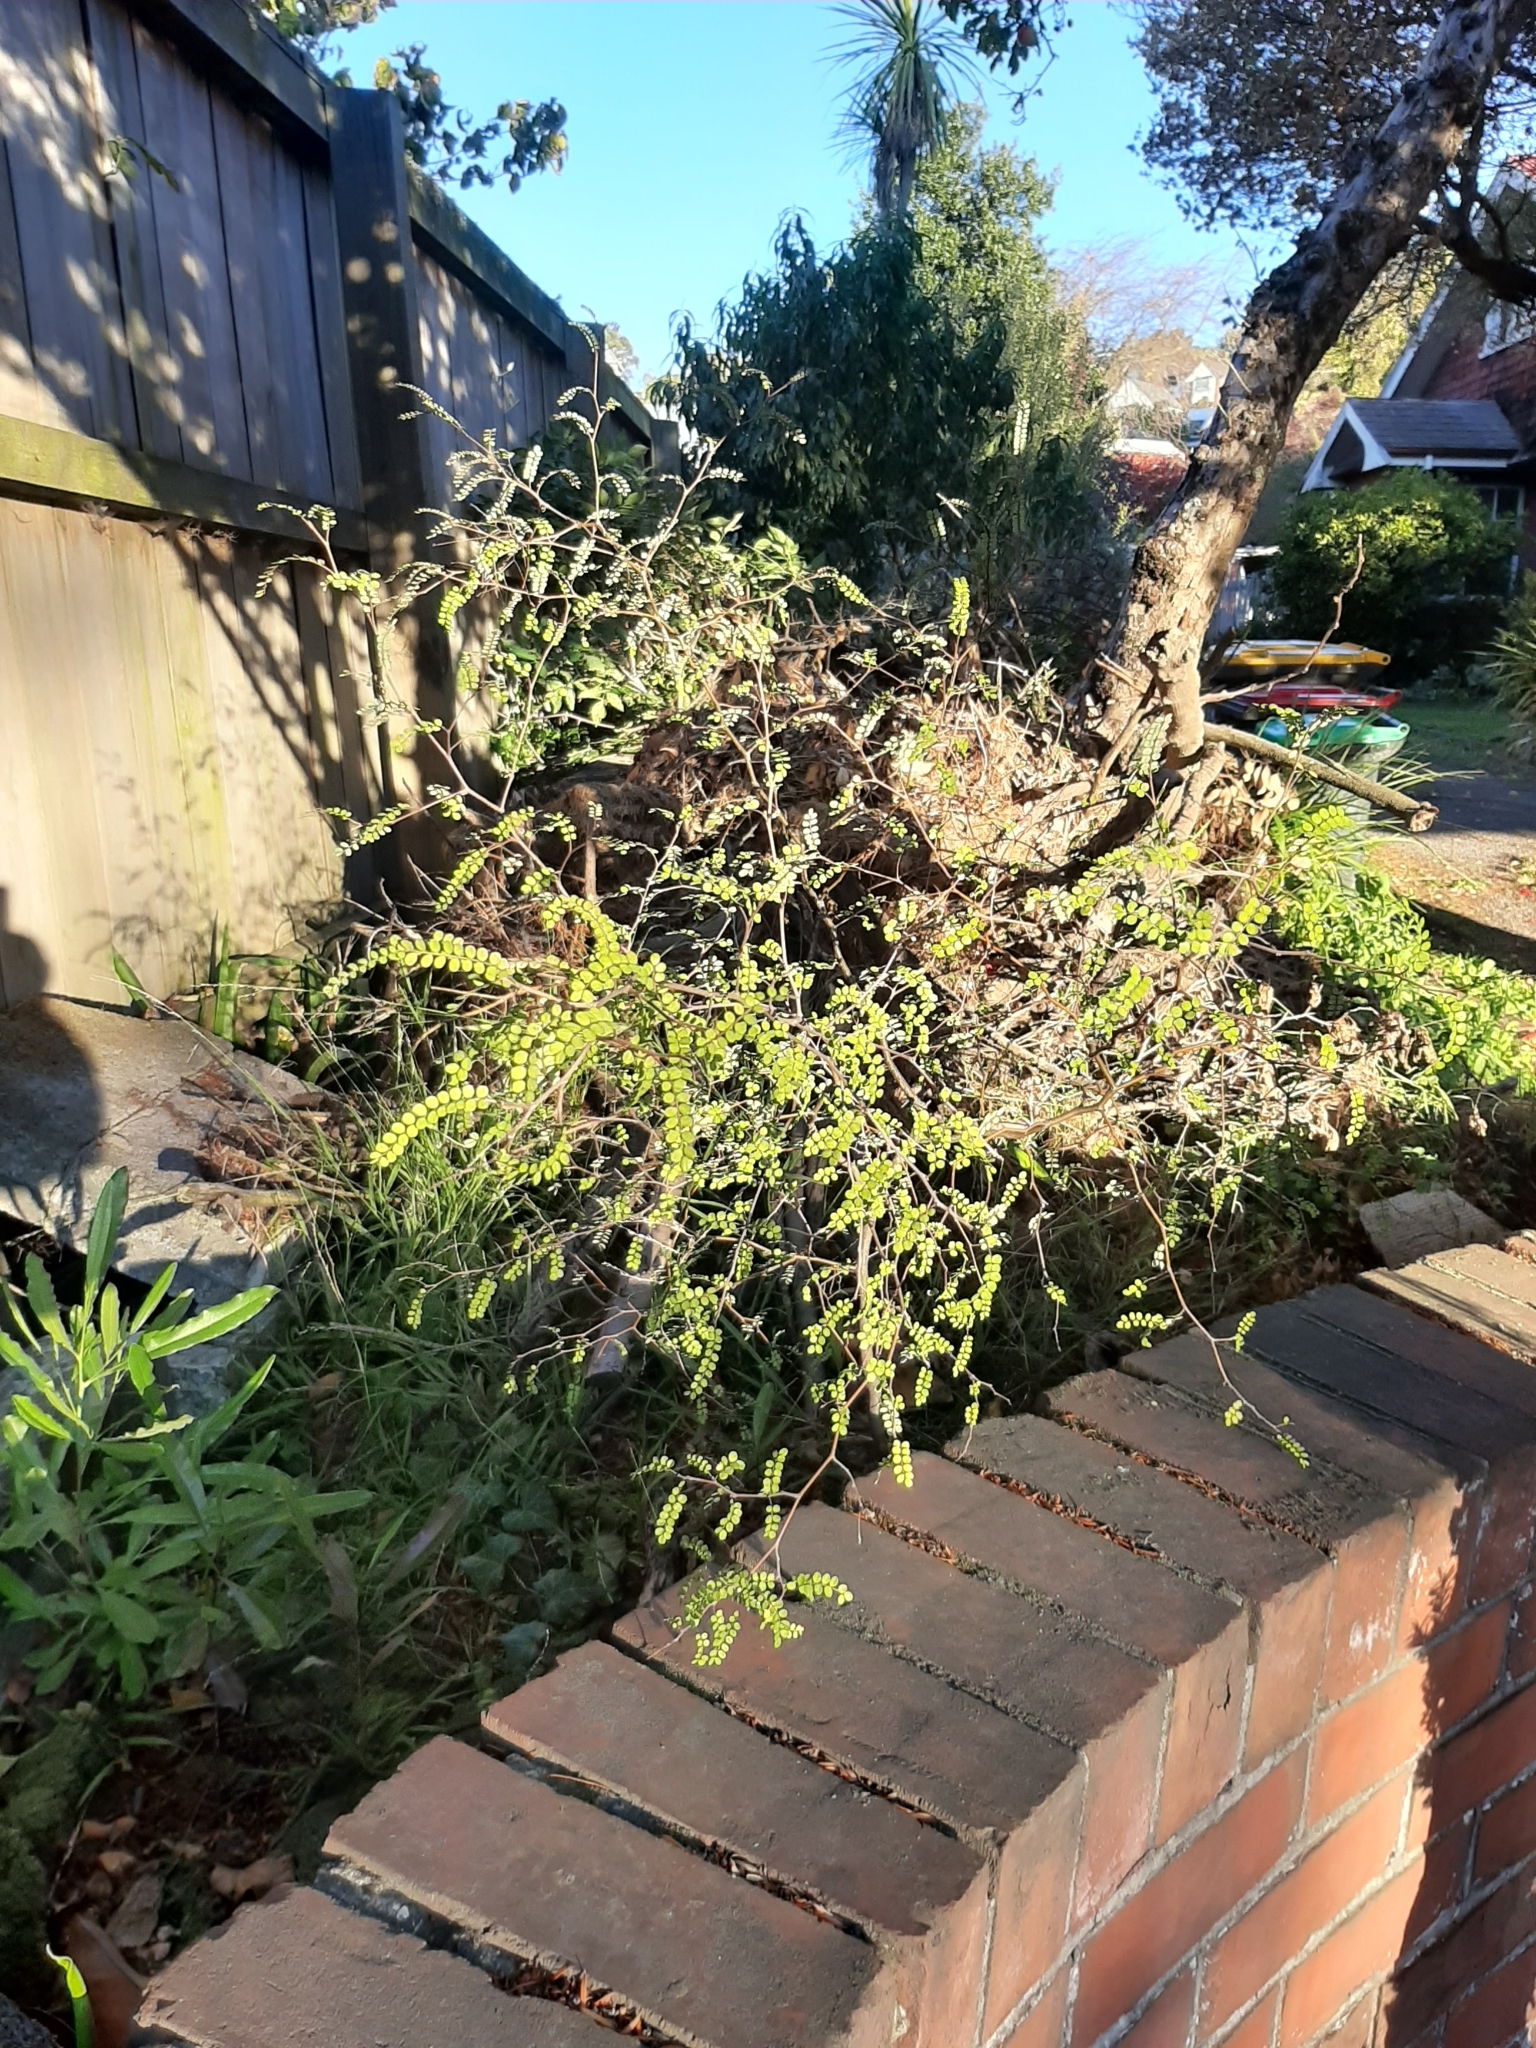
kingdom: Plantae
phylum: Tracheophyta
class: Magnoliopsida
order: Fabales
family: Fabaceae
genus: Sophora
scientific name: Sophora microphylla
